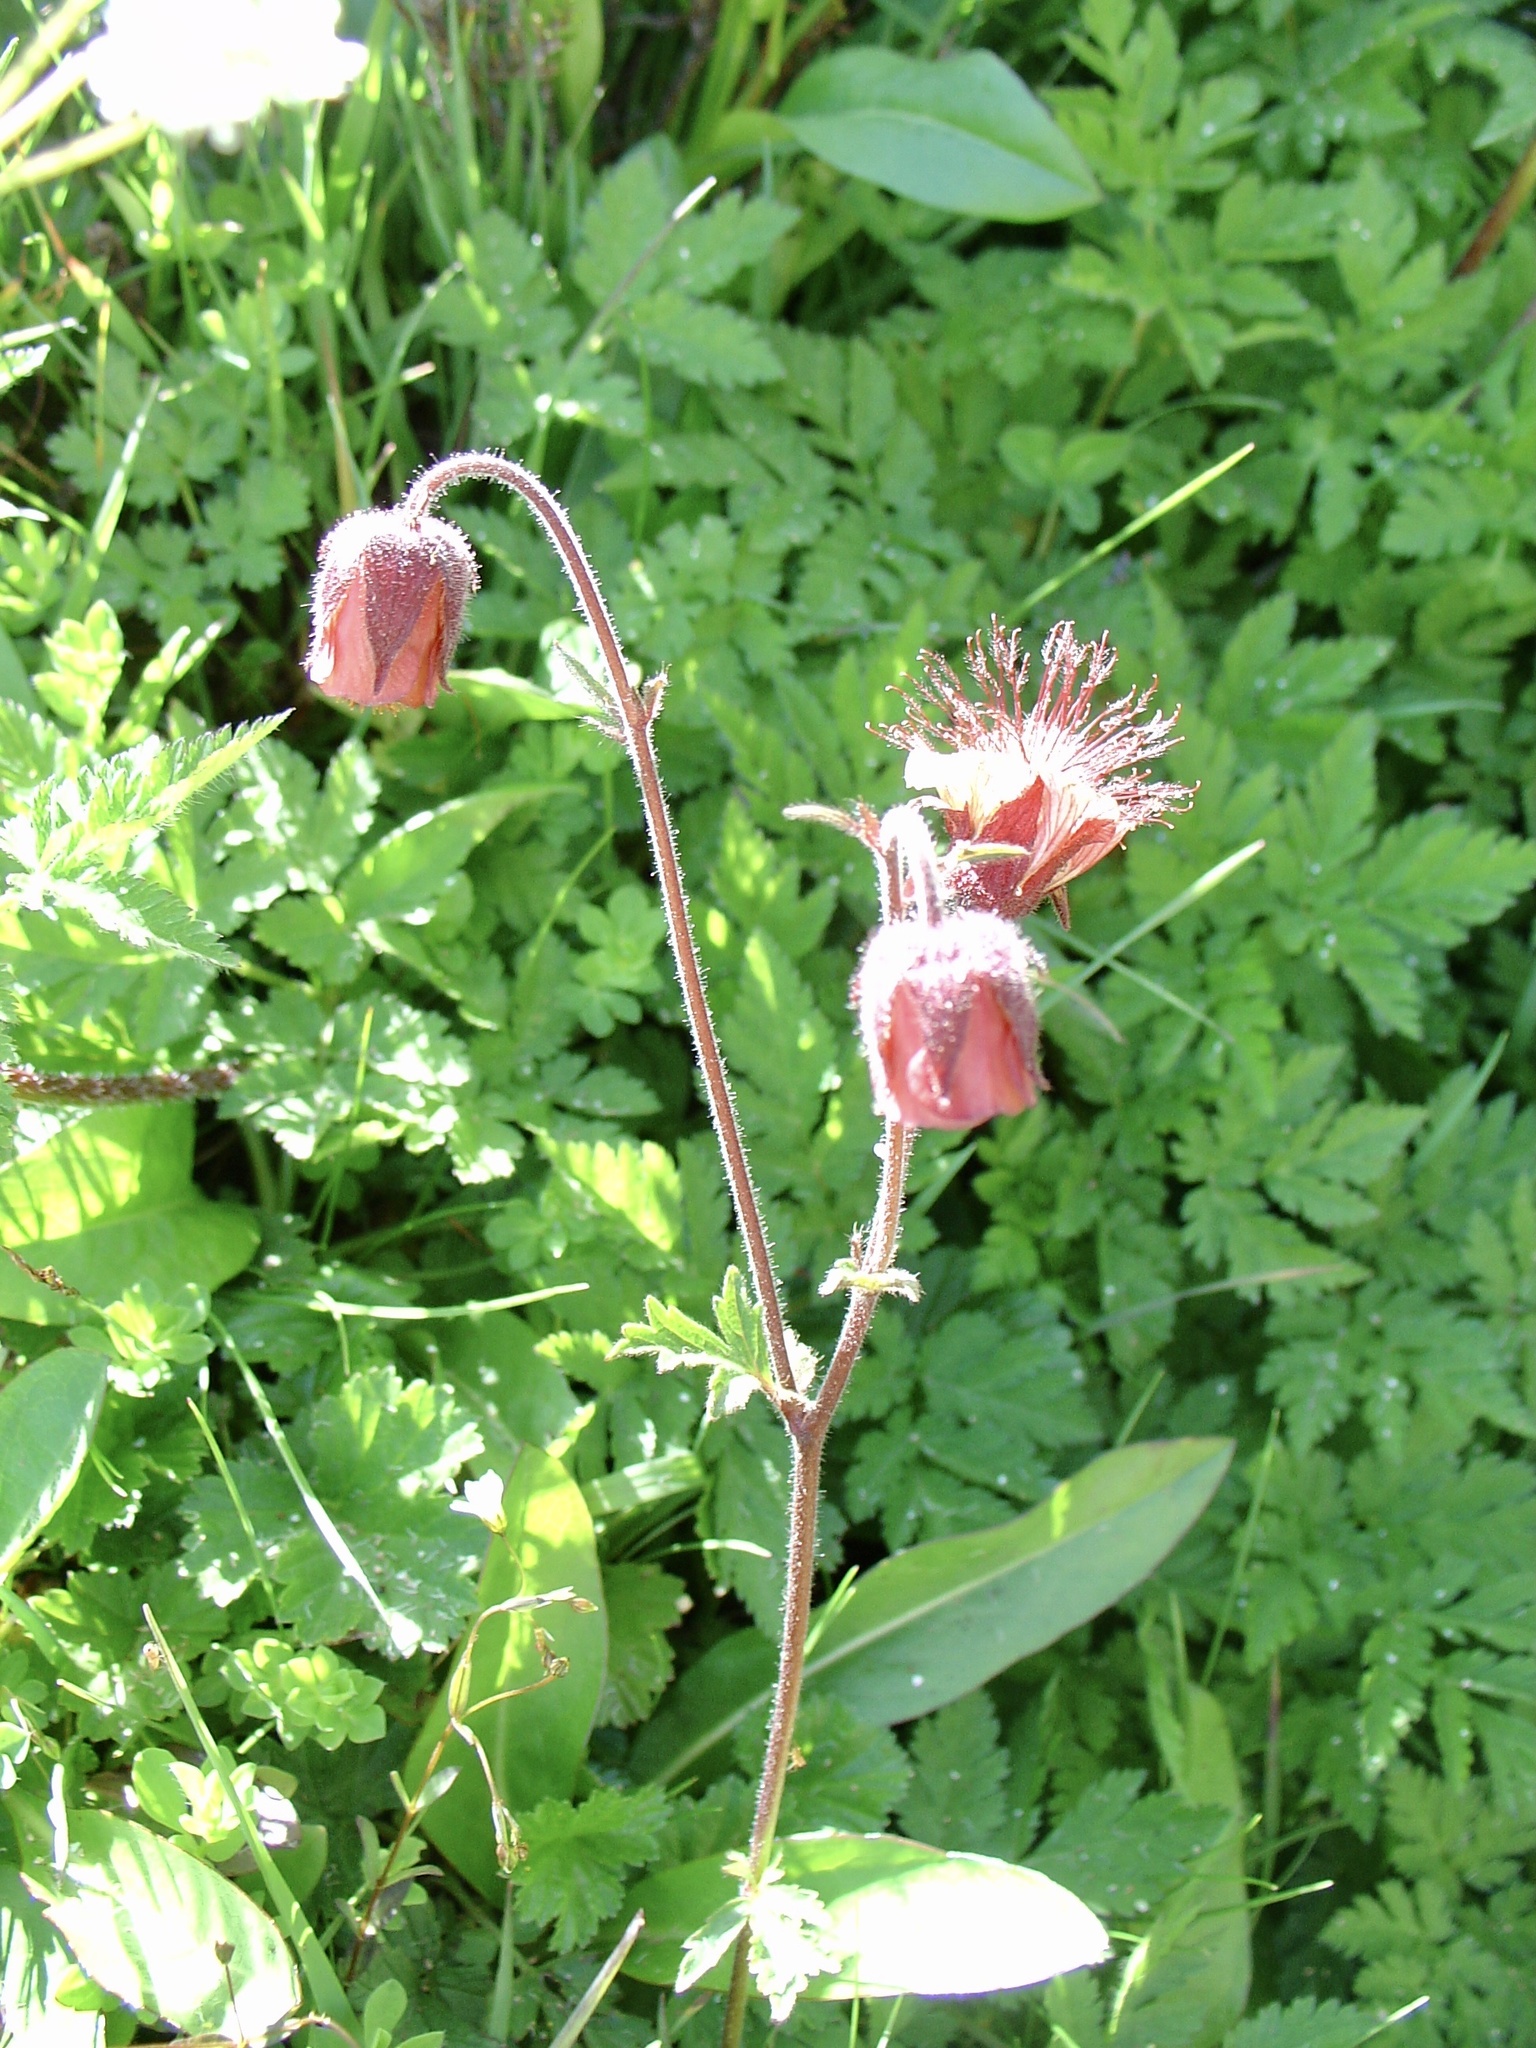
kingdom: Plantae
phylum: Tracheophyta
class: Magnoliopsida
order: Rosales
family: Rosaceae
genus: Geum
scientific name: Geum rivale
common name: Water avens
